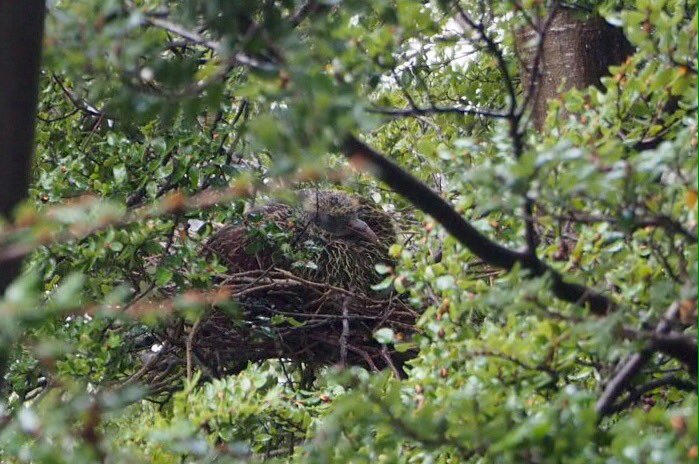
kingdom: Animalia
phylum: Chordata
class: Aves
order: Columbiformes
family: Columbidae
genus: Hemiphaga
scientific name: Hemiphaga novaeseelandiae
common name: New zealand pigeon
